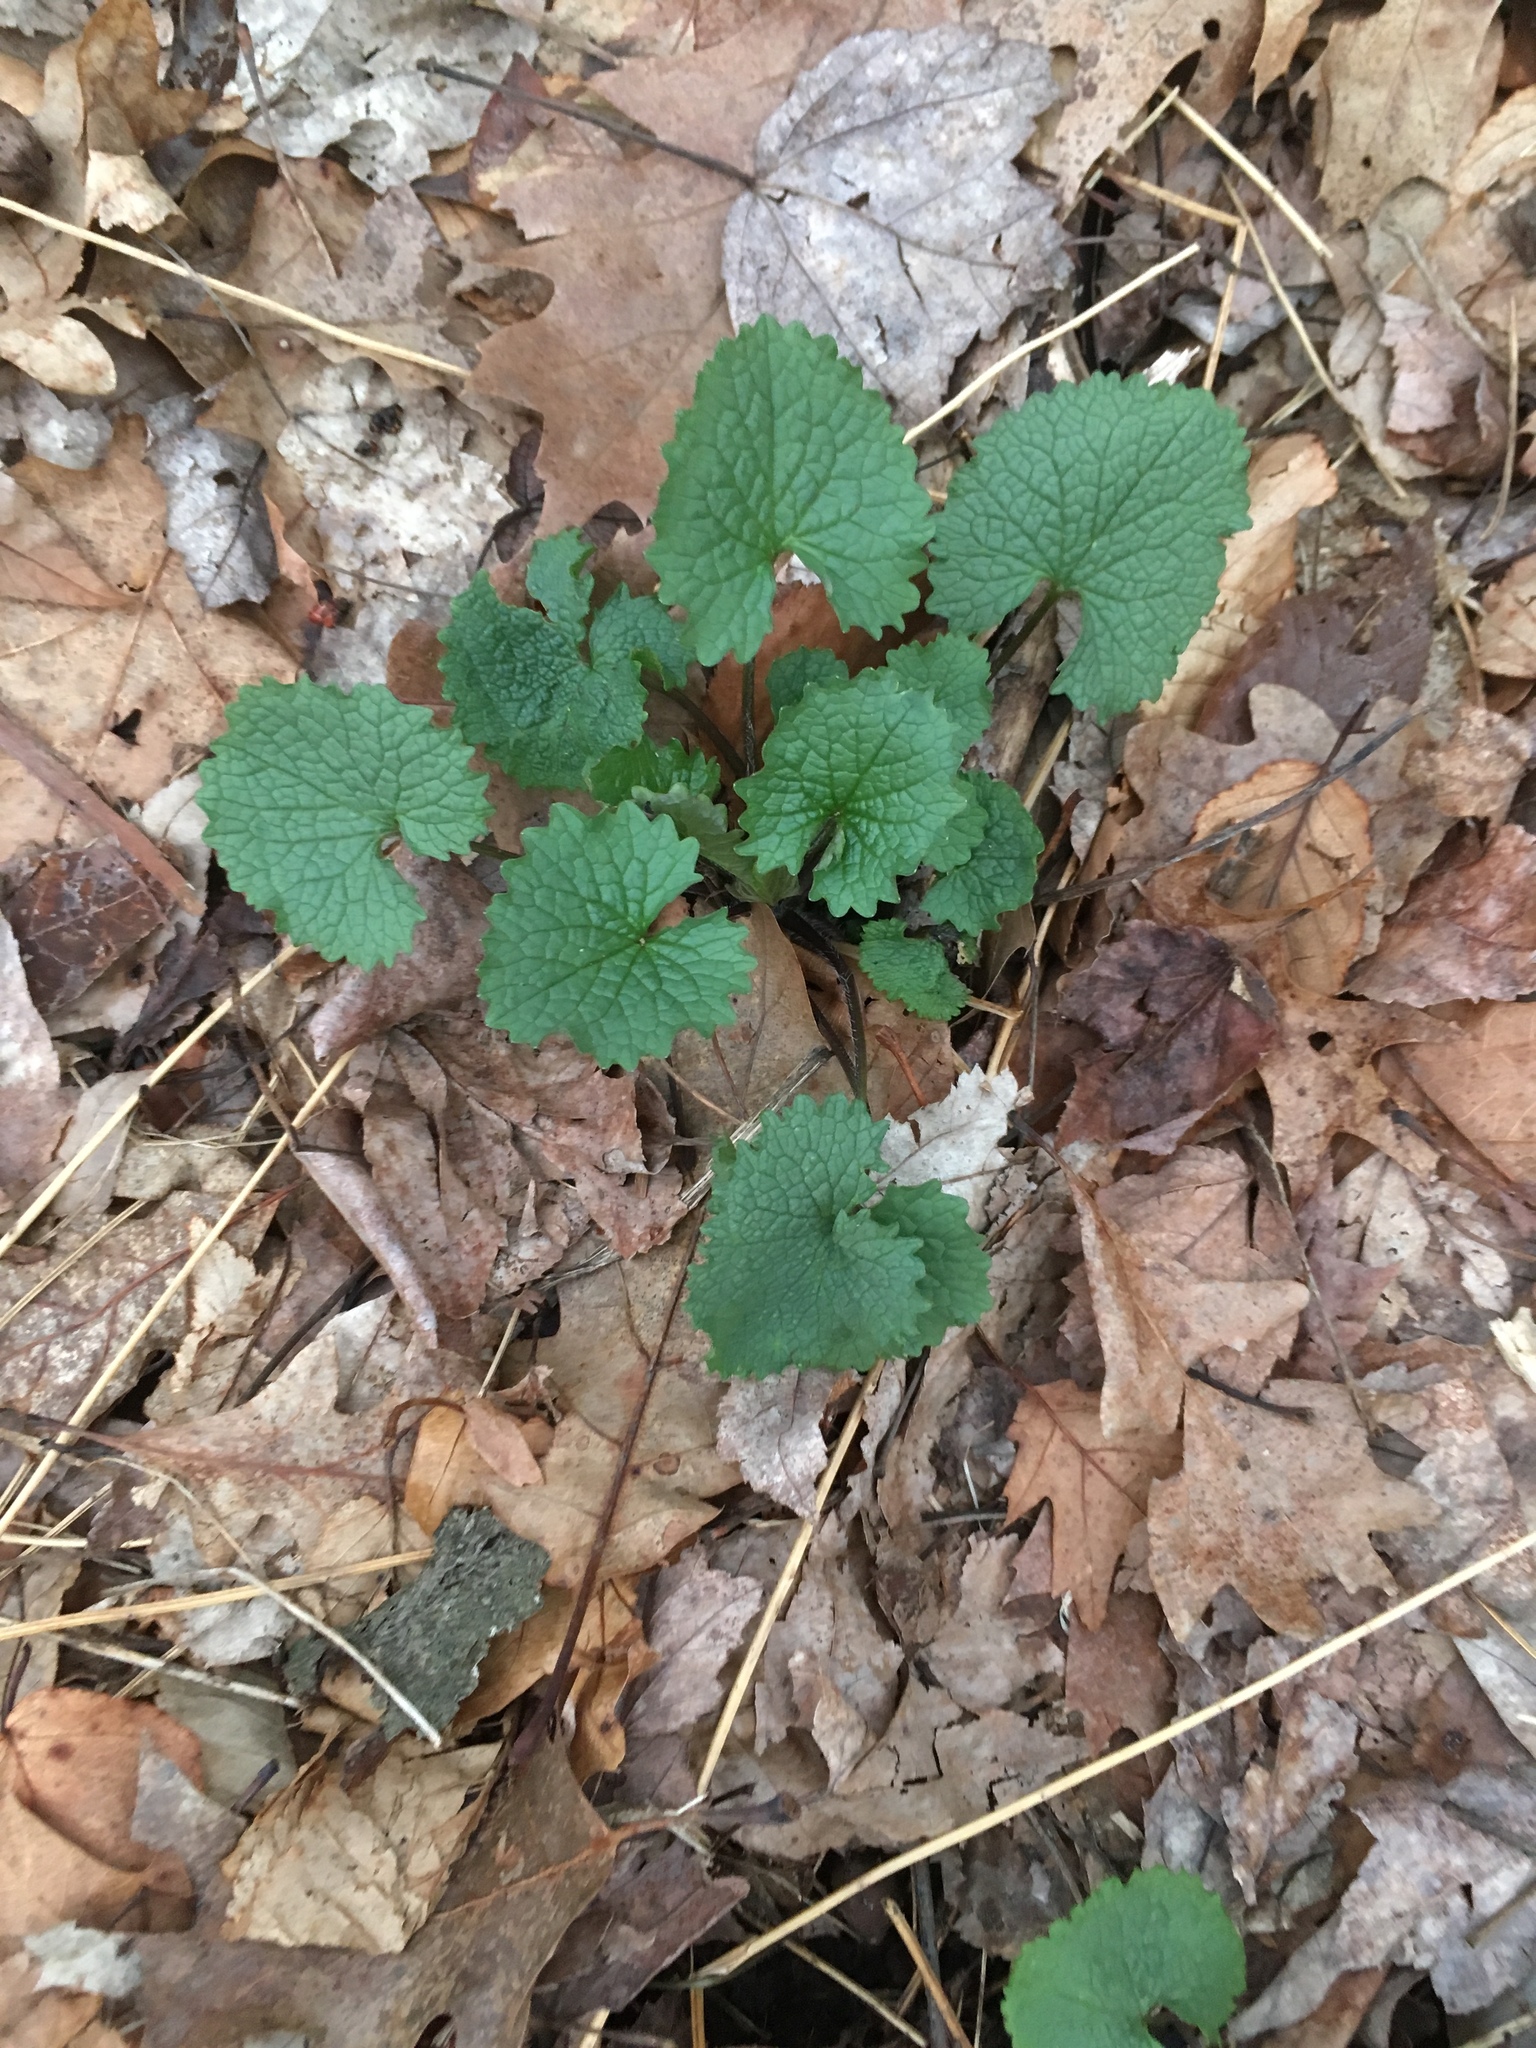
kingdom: Plantae
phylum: Tracheophyta
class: Magnoliopsida
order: Brassicales
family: Brassicaceae
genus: Alliaria
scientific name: Alliaria petiolata
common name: Garlic mustard
